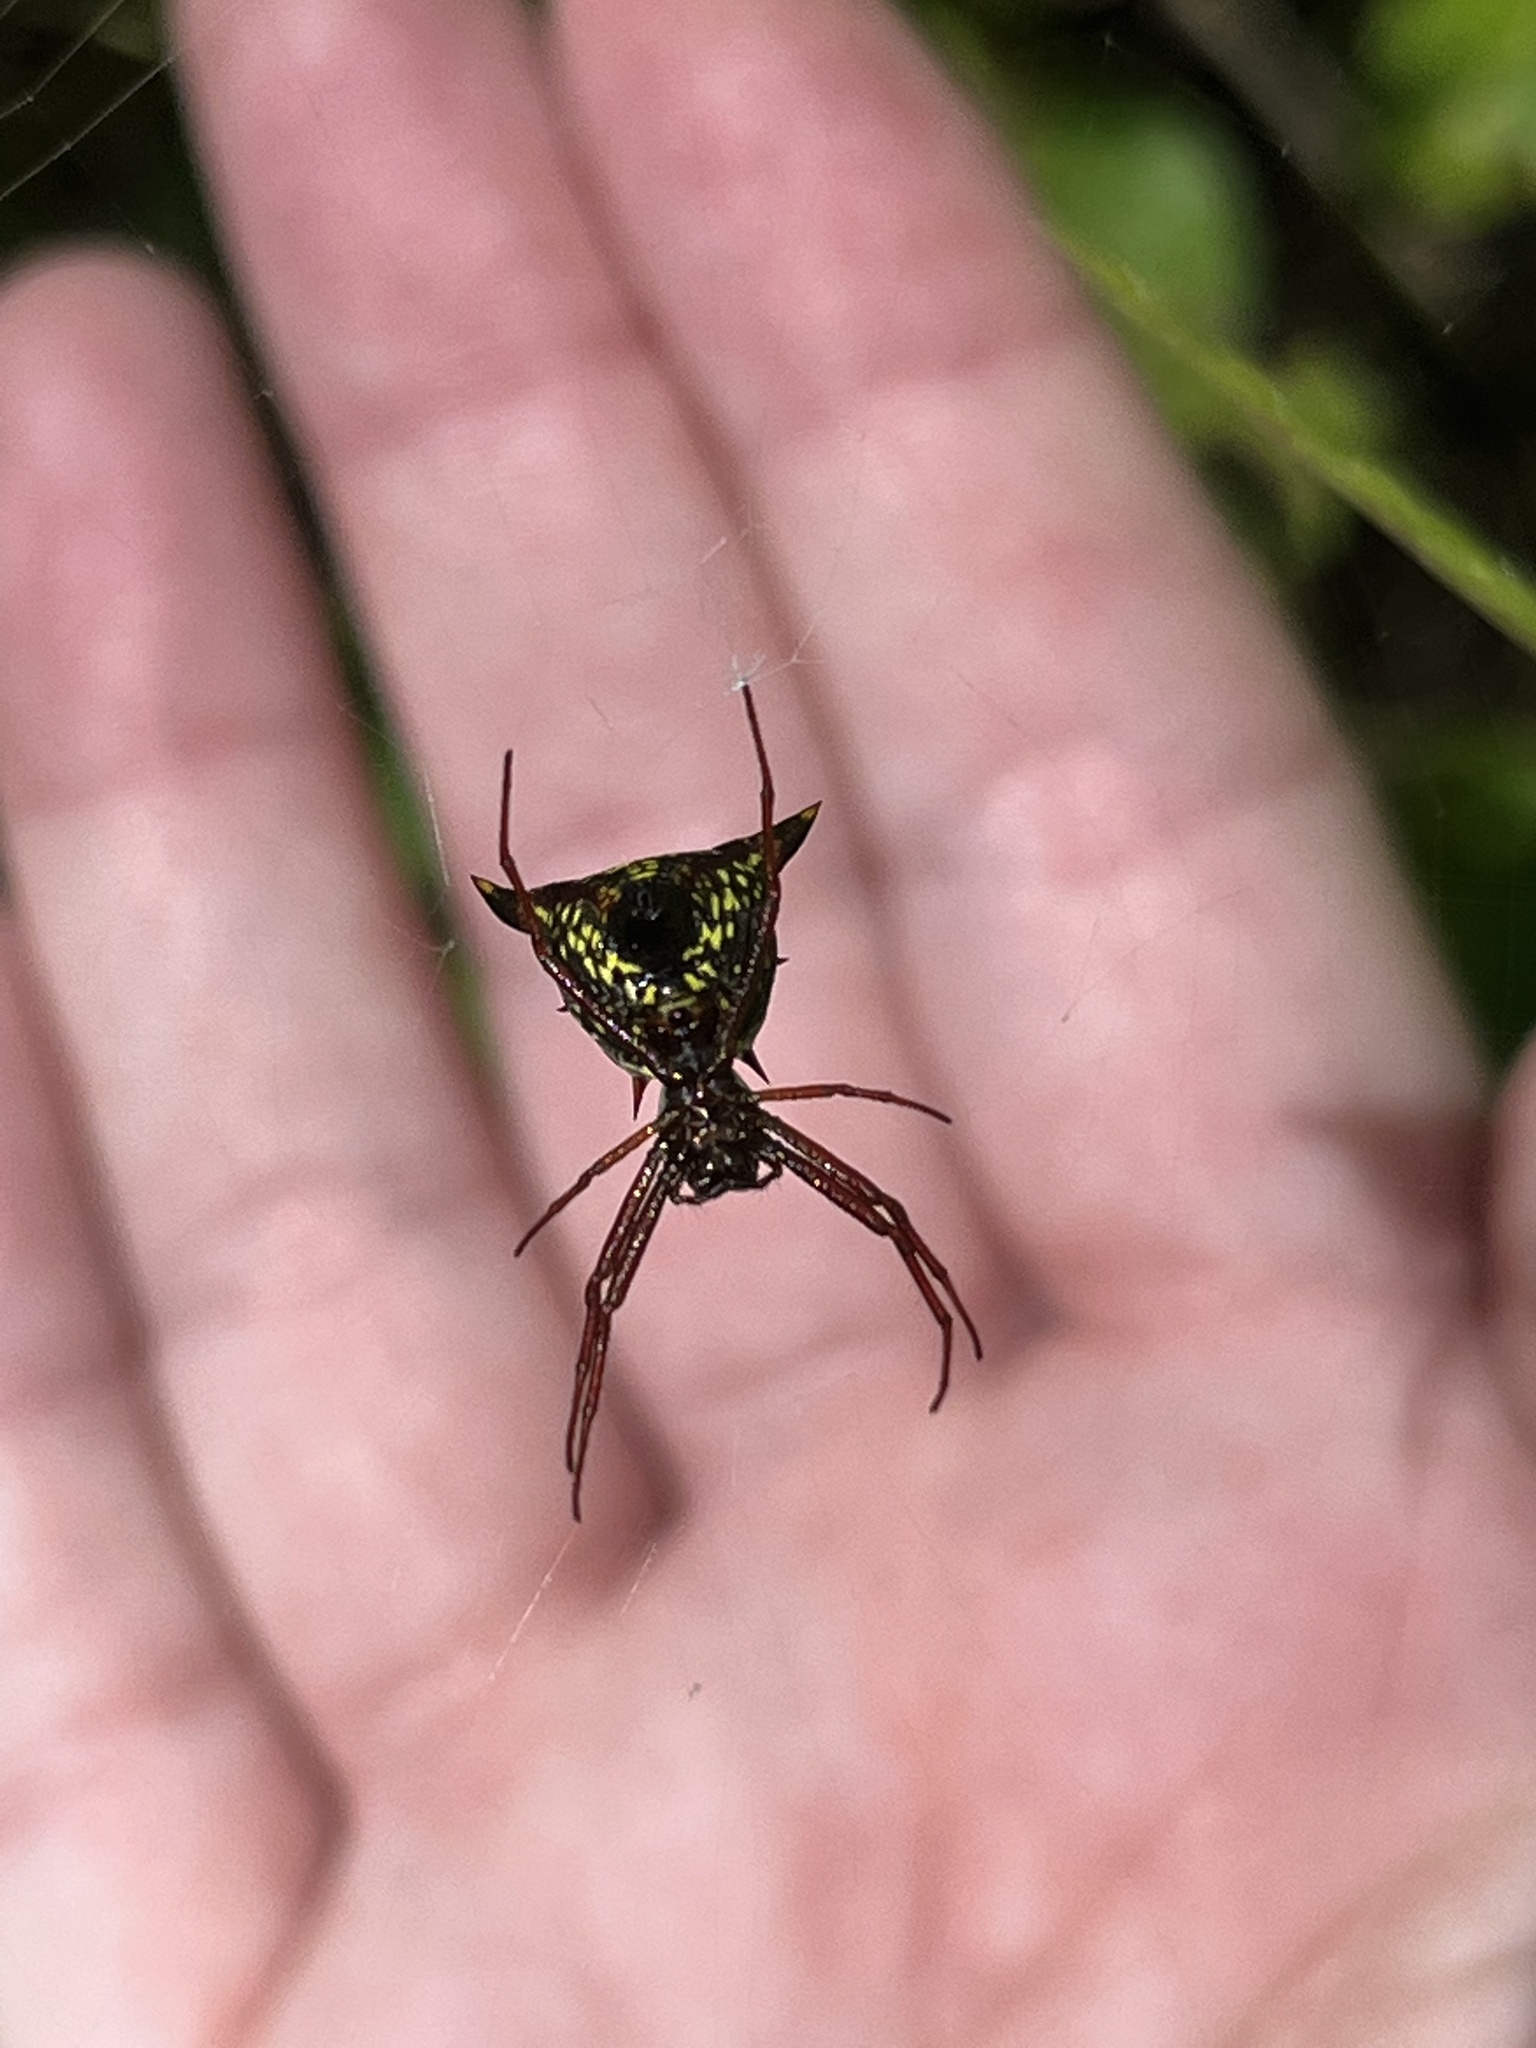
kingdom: Animalia
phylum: Arthropoda
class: Arachnida
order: Araneae
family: Araneidae
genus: Micrathena
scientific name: Micrathena sagittata
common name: Orb weavers
